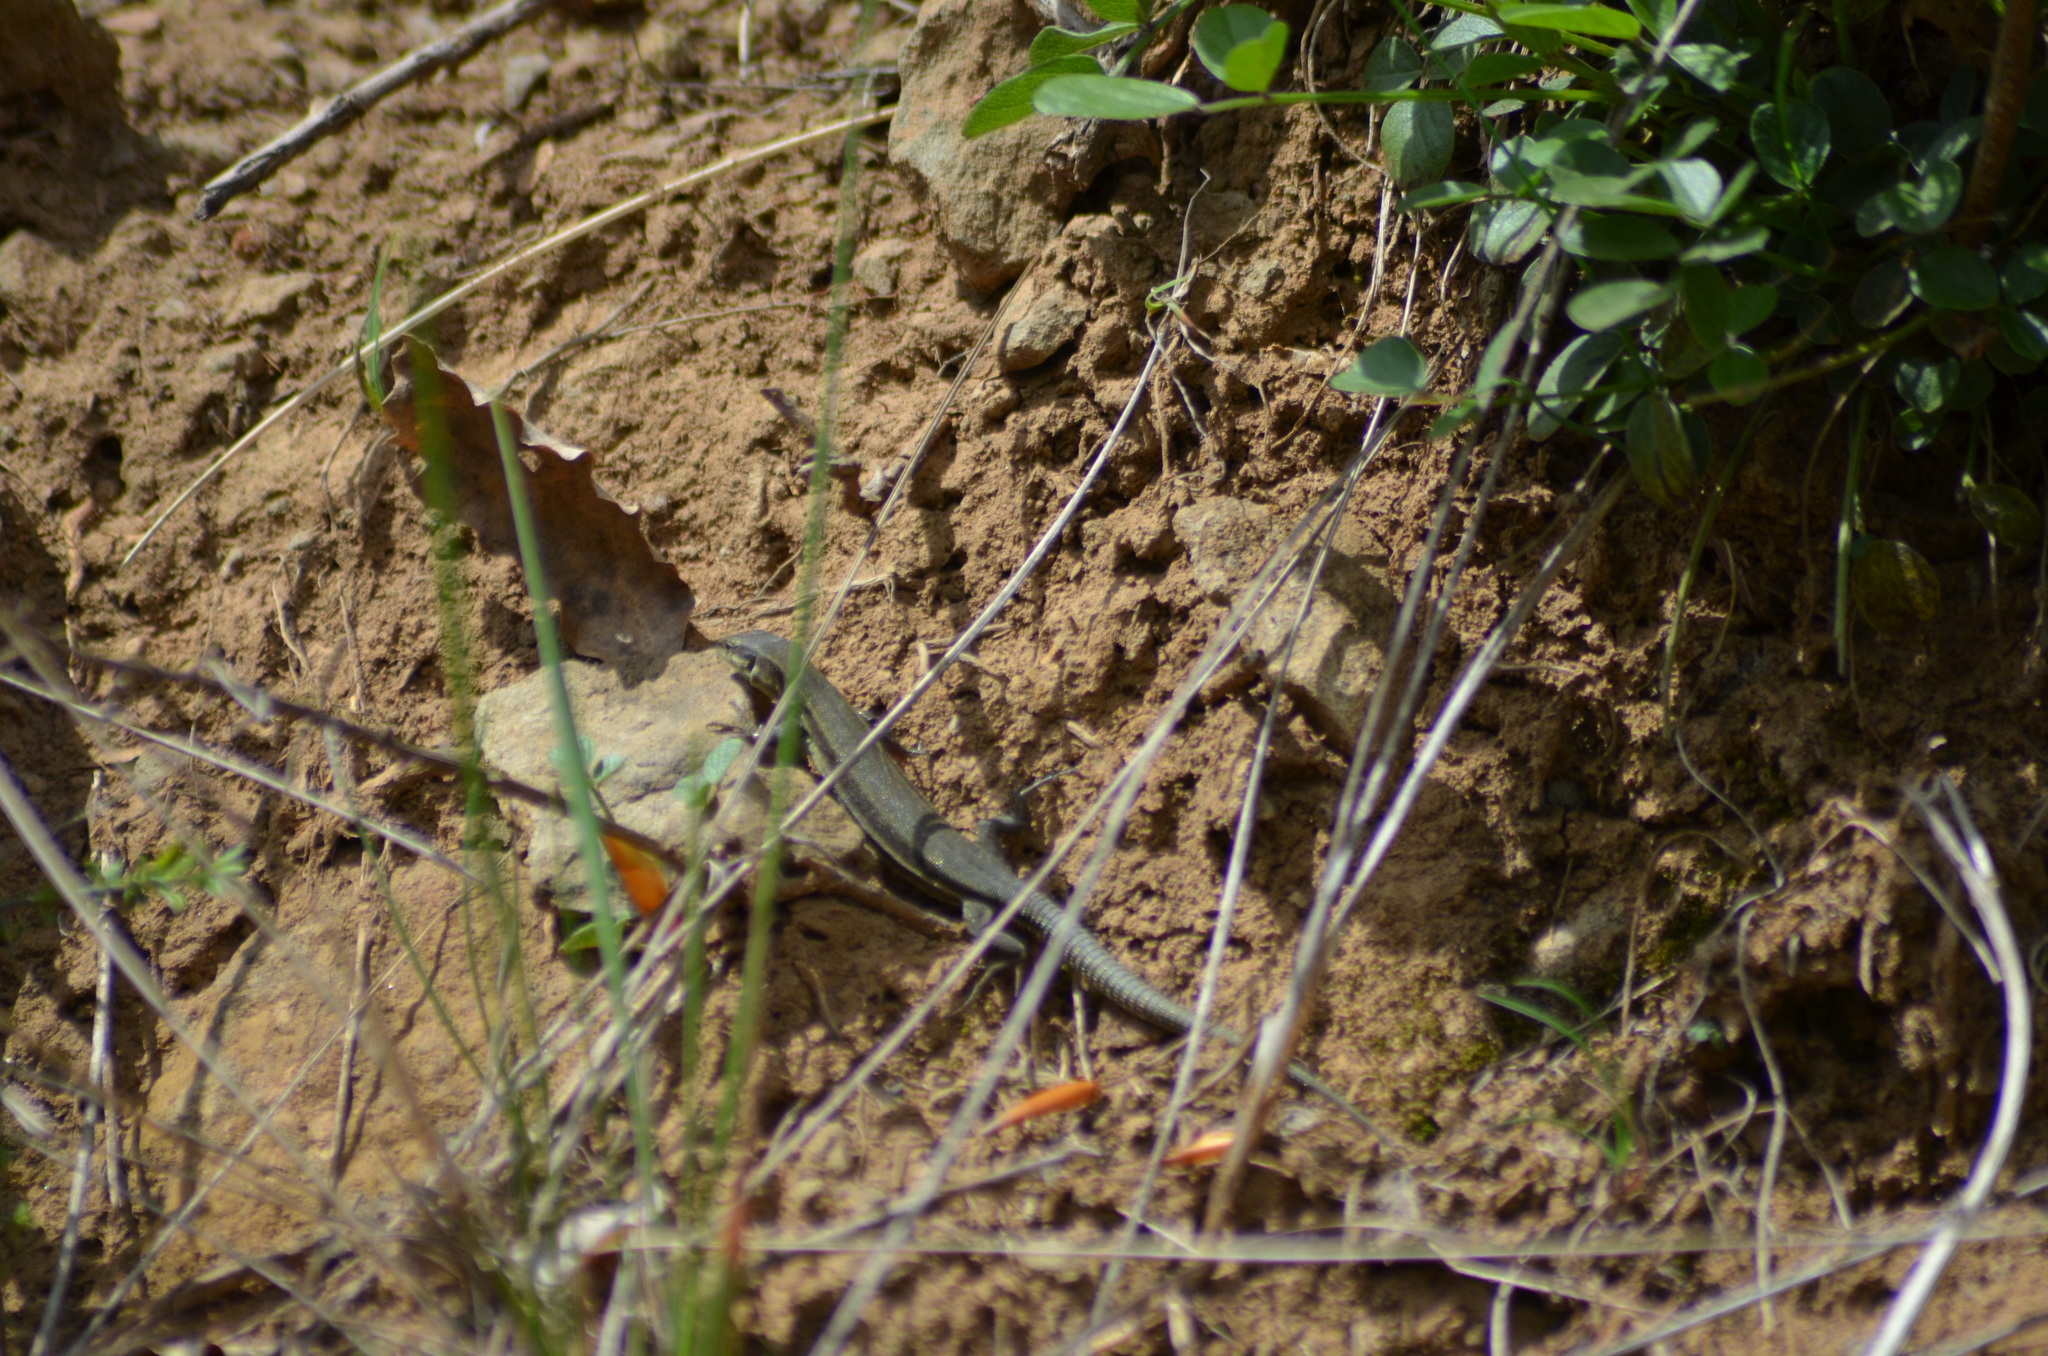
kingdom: Animalia
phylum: Chordata
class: Squamata
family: Lacertidae
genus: Podarcis
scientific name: Podarcis liolepis
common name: Catalonian wall lizard
